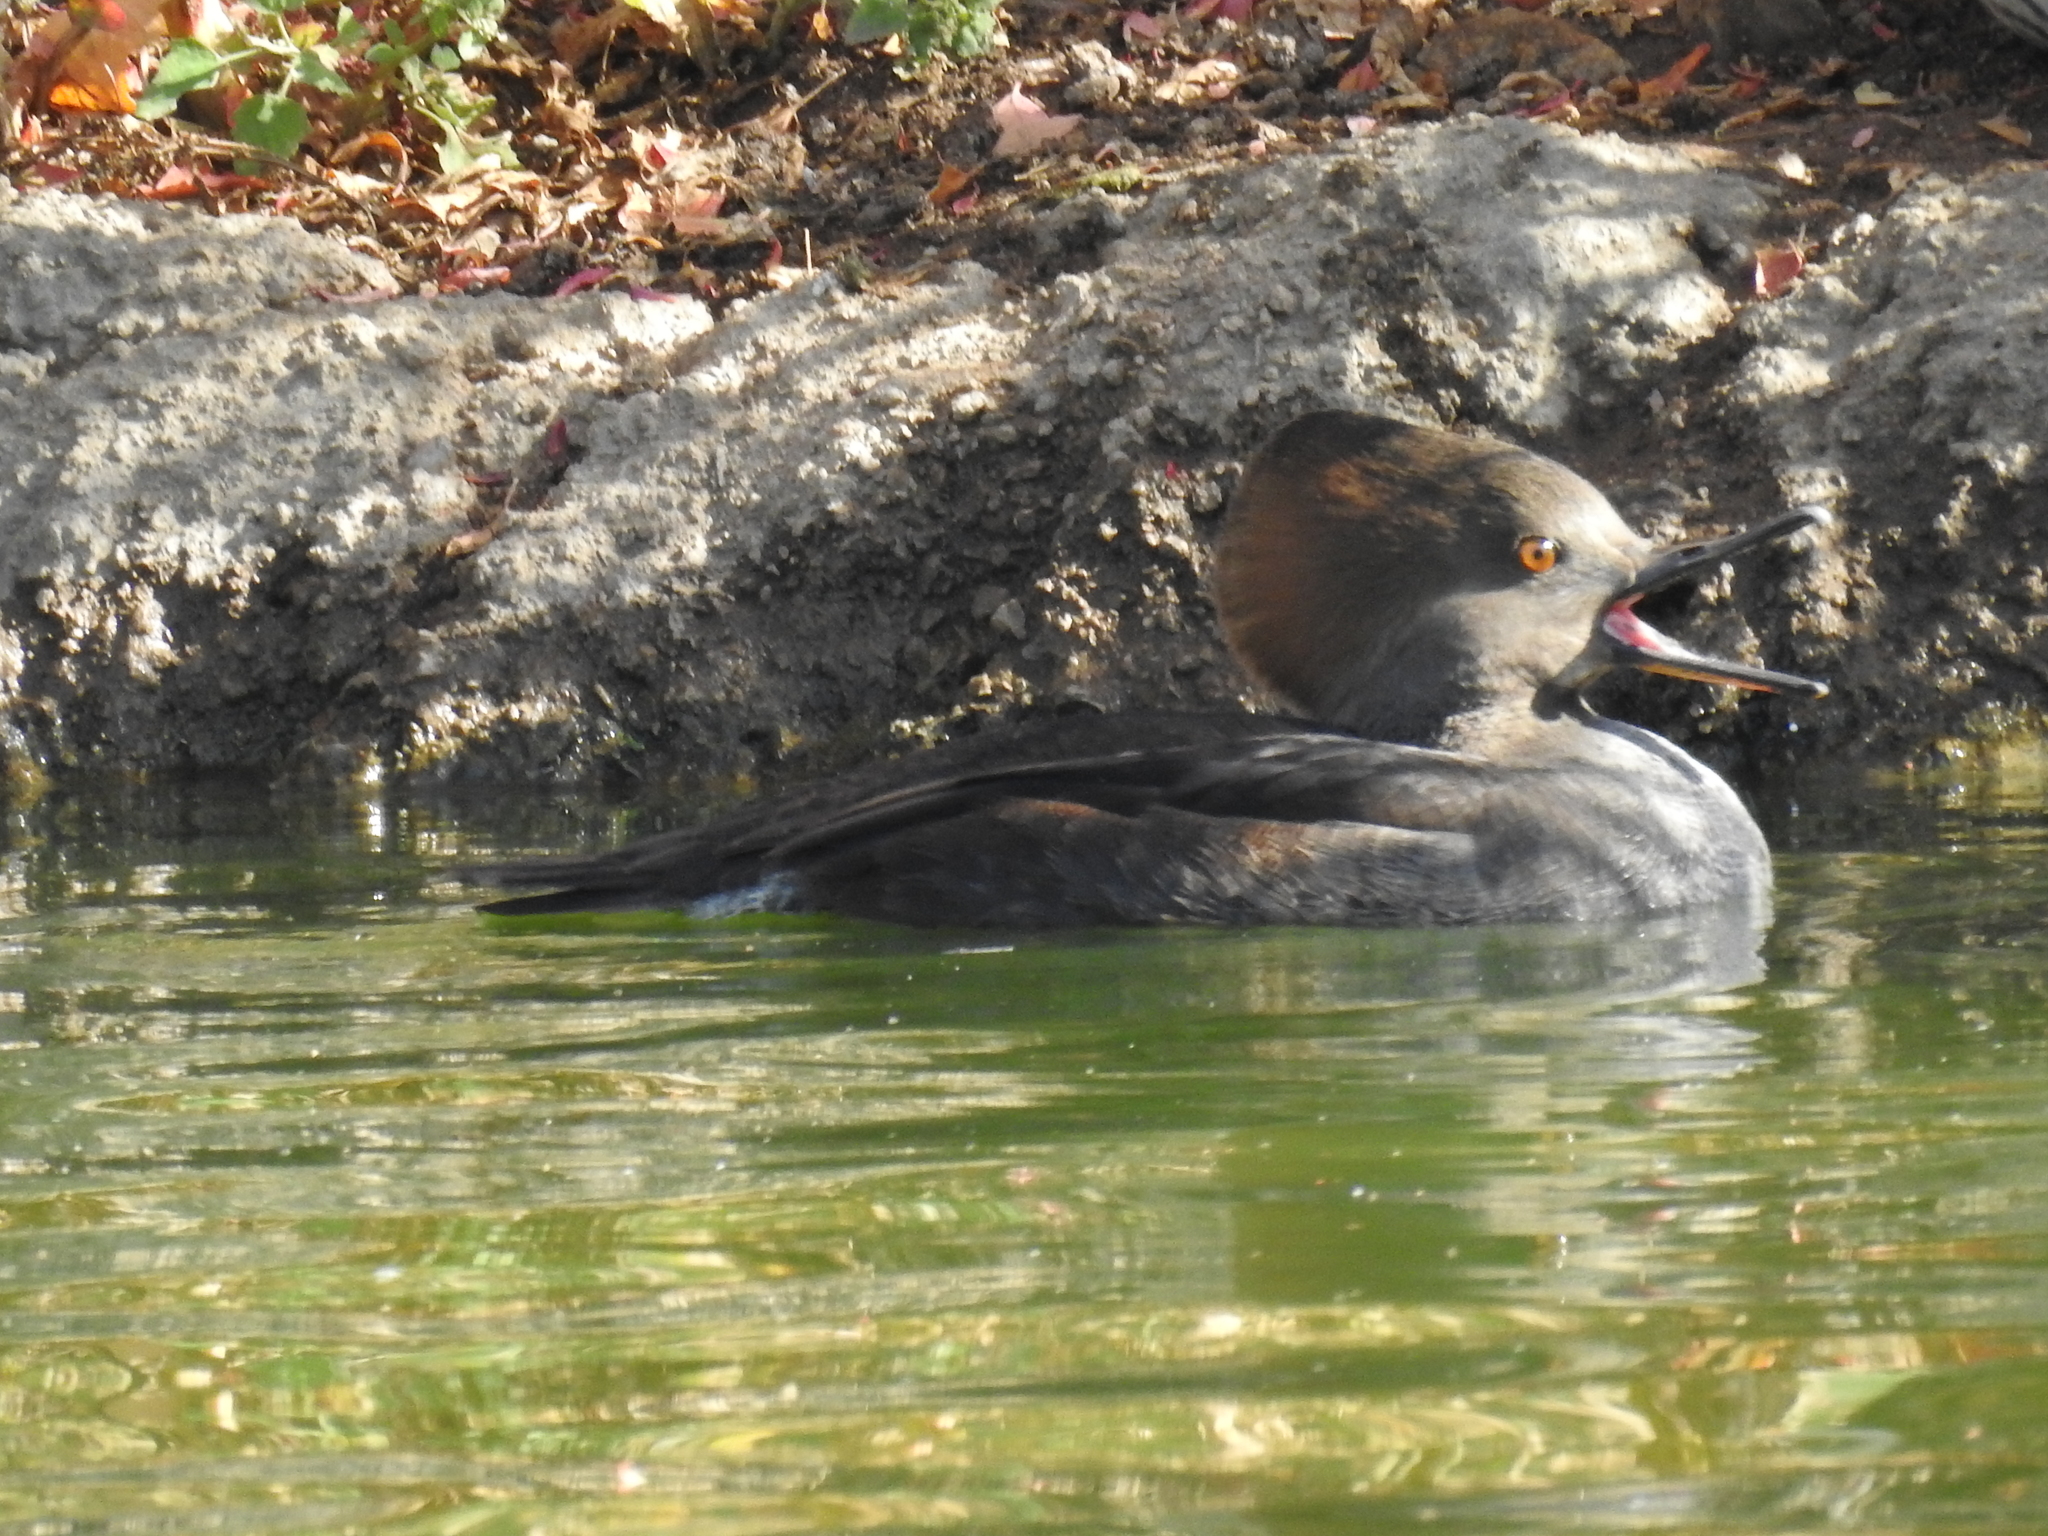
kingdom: Animalia
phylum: Chordata
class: Aves
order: Anseriformes
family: Anatidae
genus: Lophodytes
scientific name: Lophodytes cucullatus
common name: Hooded merganser
